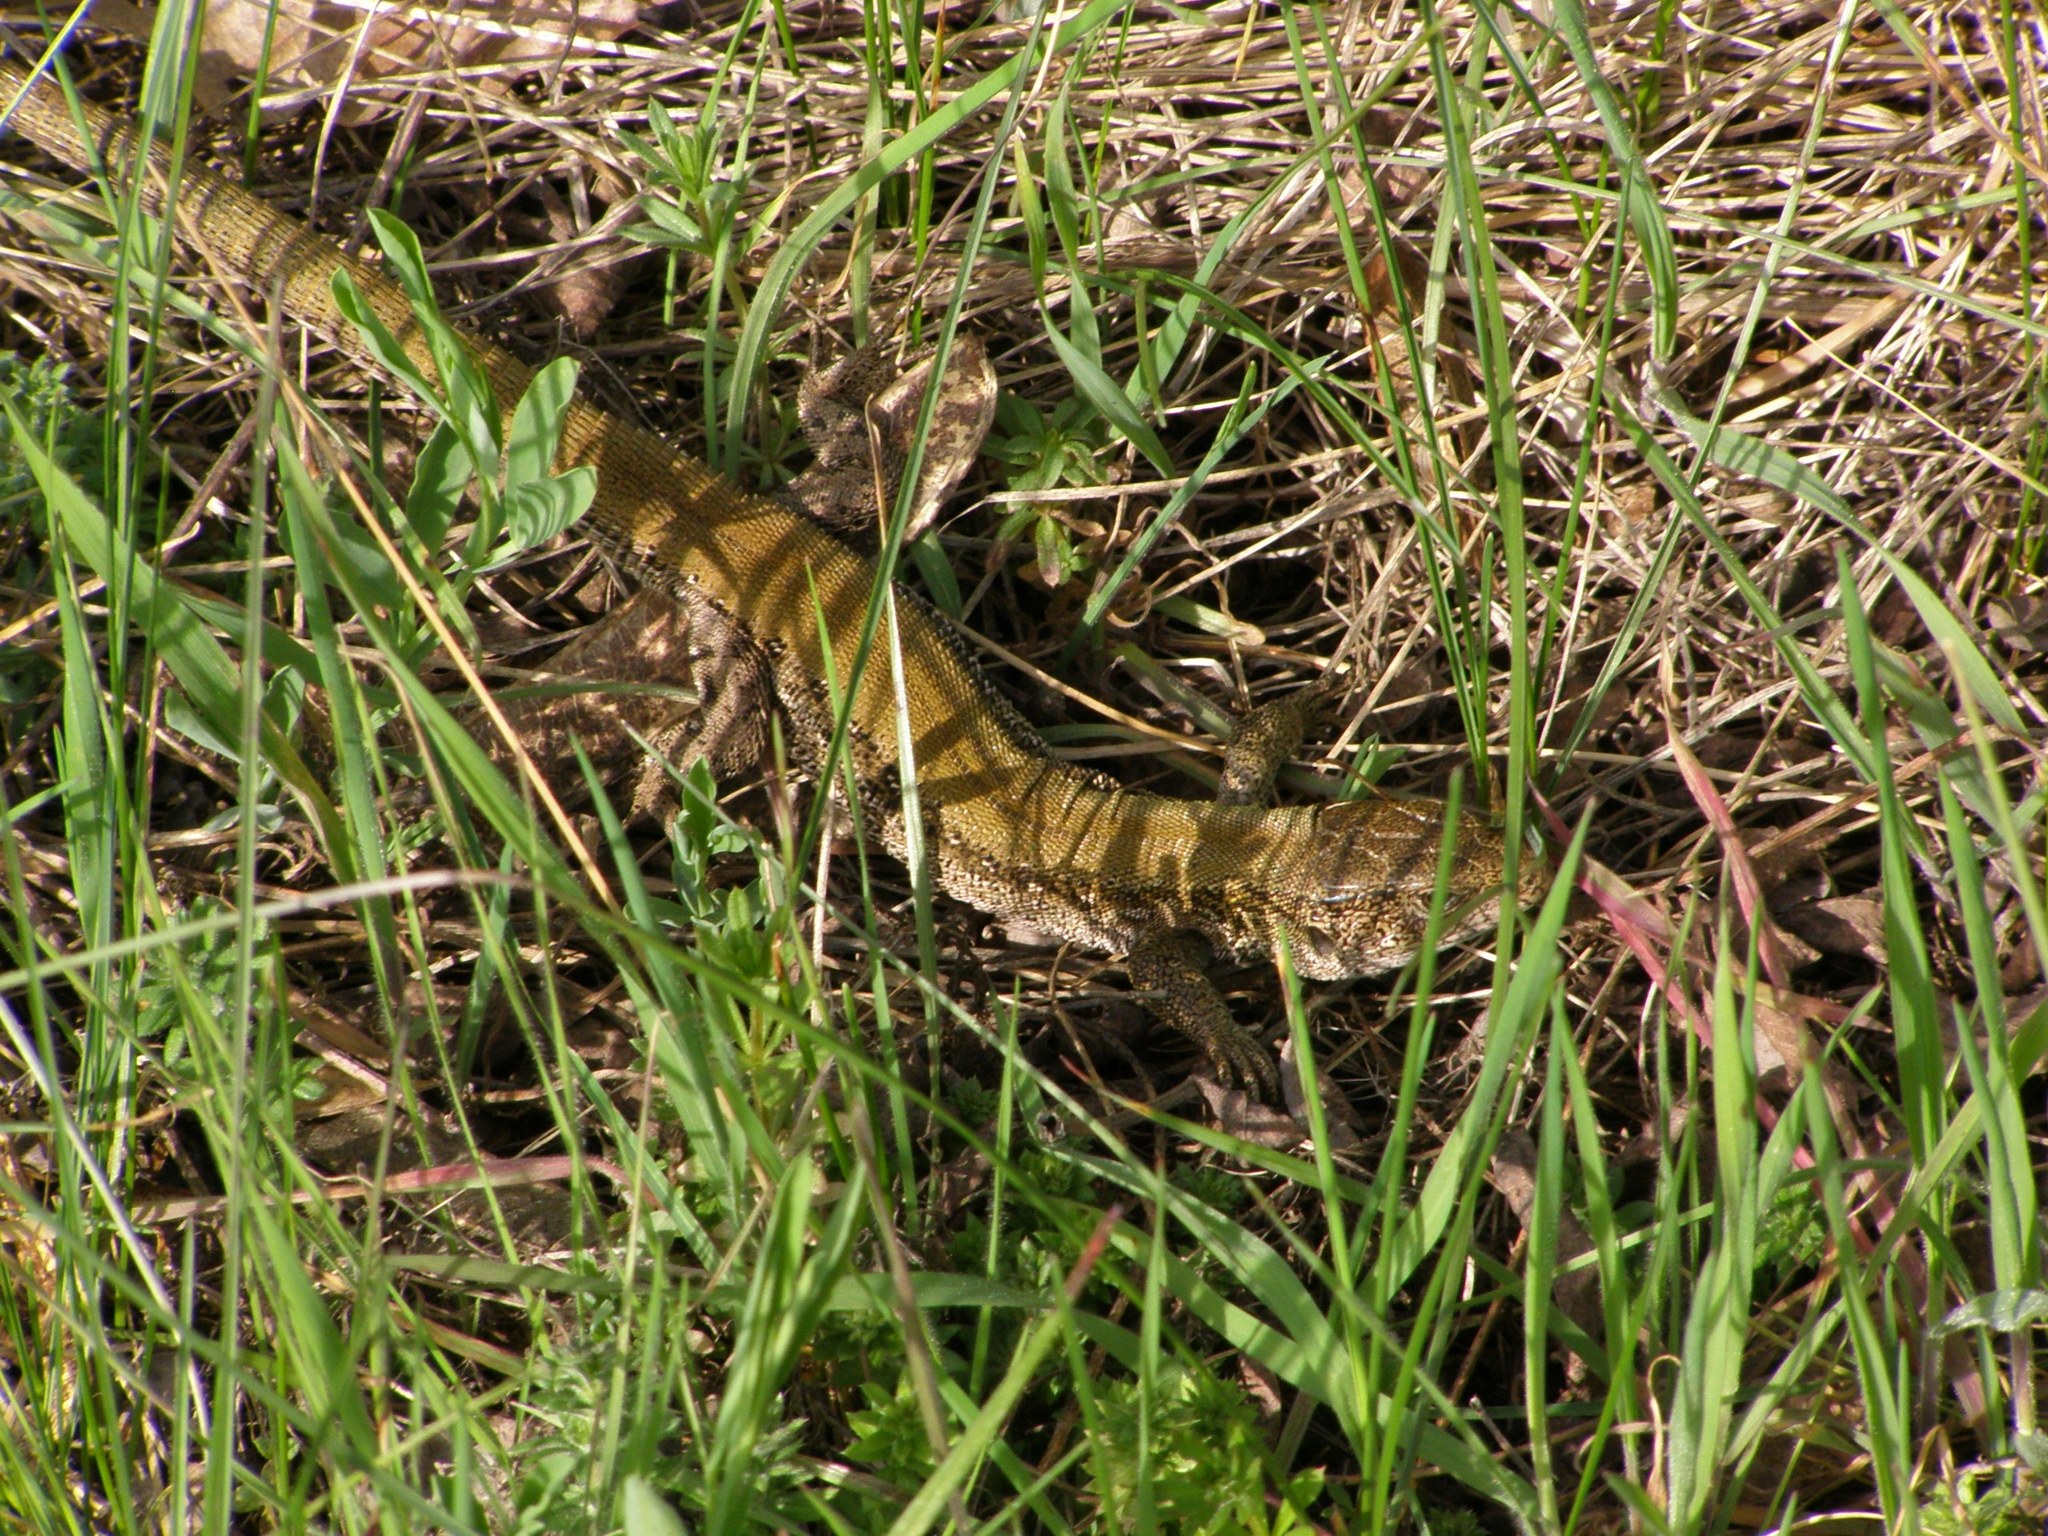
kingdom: Animalia
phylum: Chordata
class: Squamata
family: Lacertidae
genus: Lacerta
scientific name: Lacerta agilis
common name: Sand lizard
